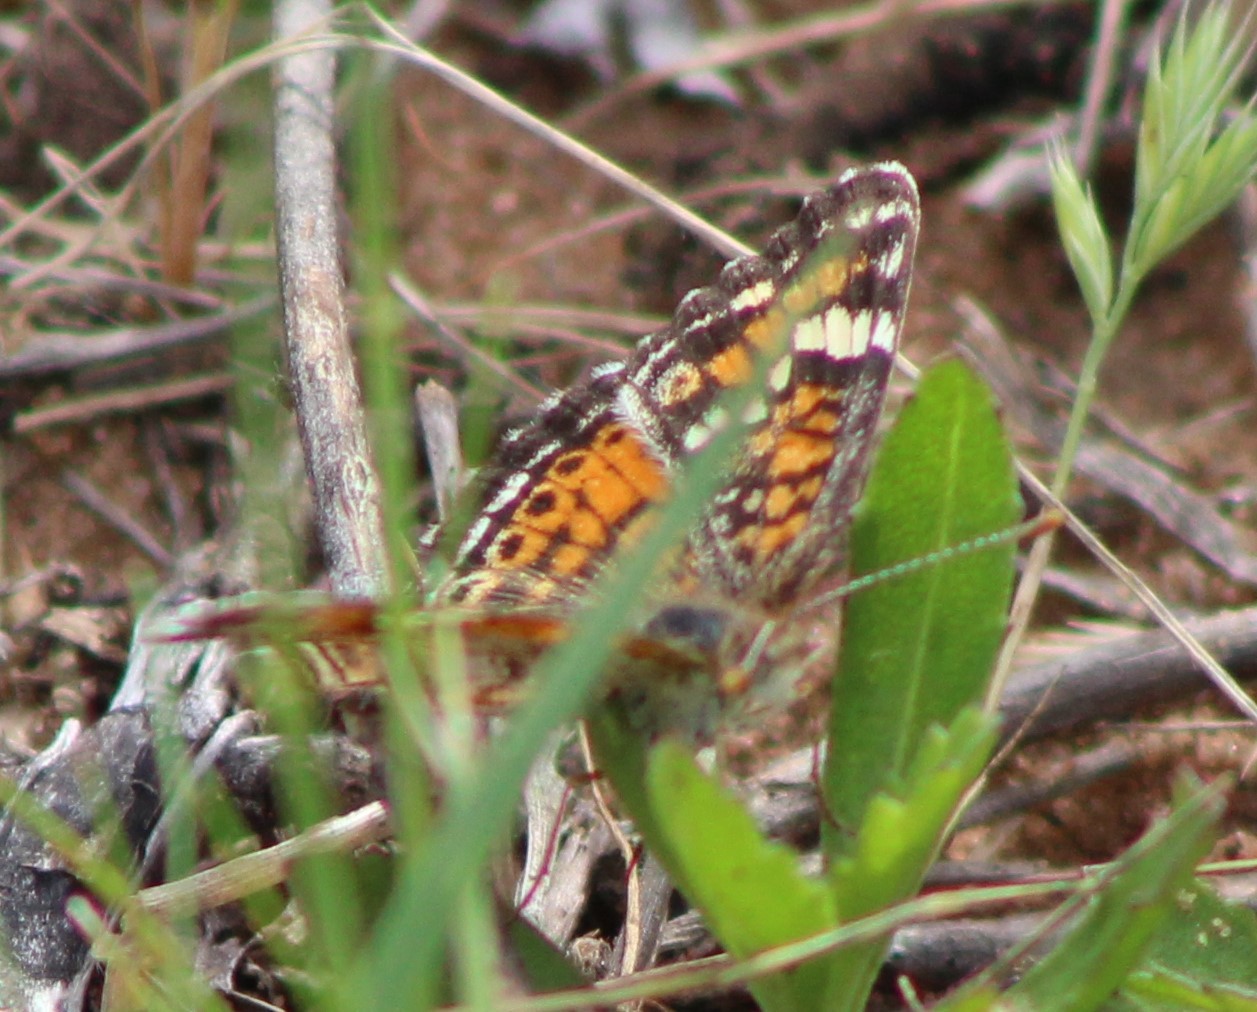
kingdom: Animalia
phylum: Arthropoda
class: Insecta
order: Lepidoptera
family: Nymphalidae
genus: Phyciodes
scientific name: Phyciodes phaon
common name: Phaon crescent
